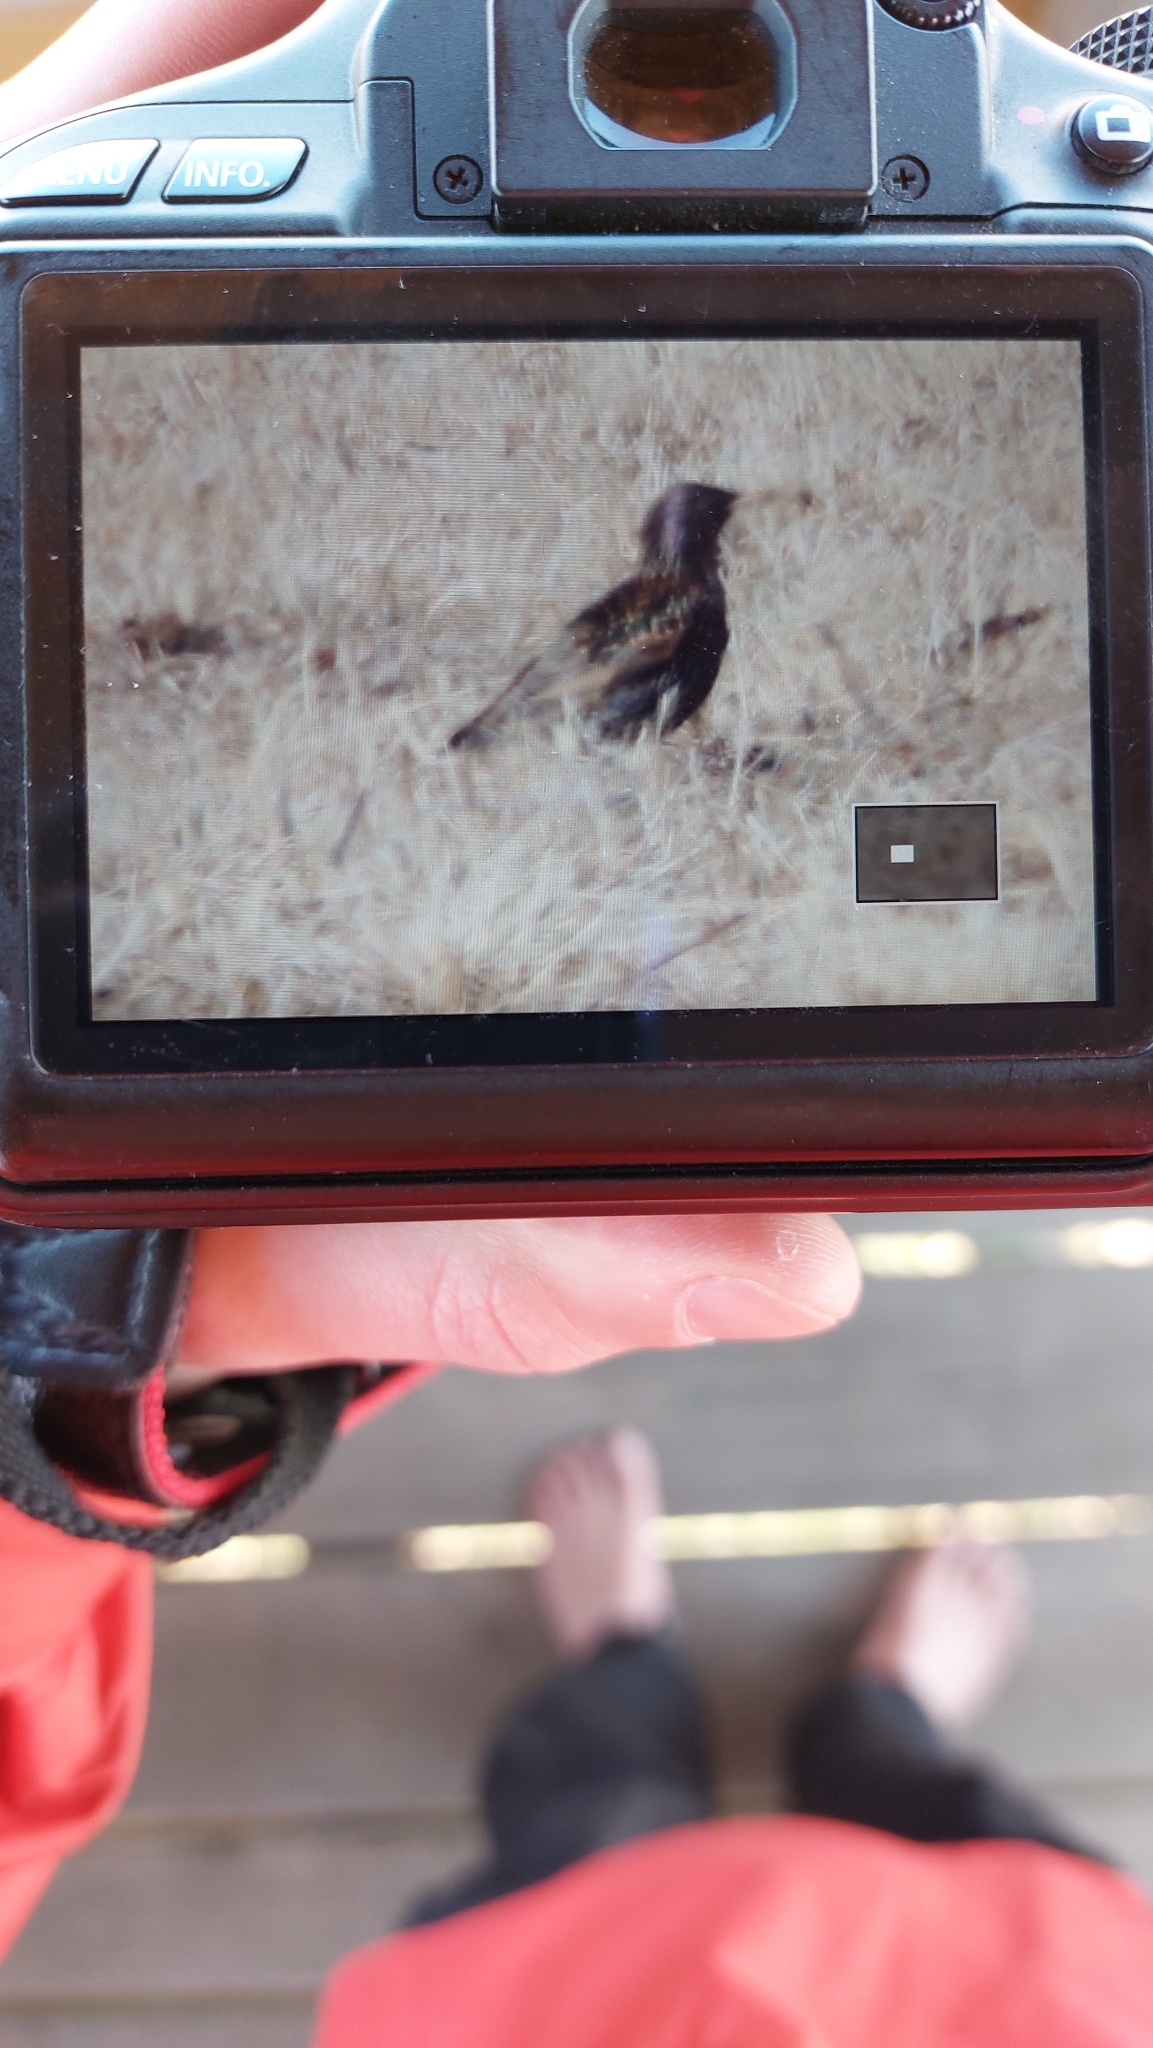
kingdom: Animalia
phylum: Chordata
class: Aves
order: Passeriformes
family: Sturnidae
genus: Sturnus
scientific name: Sturnus vulgaris
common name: Common starling
